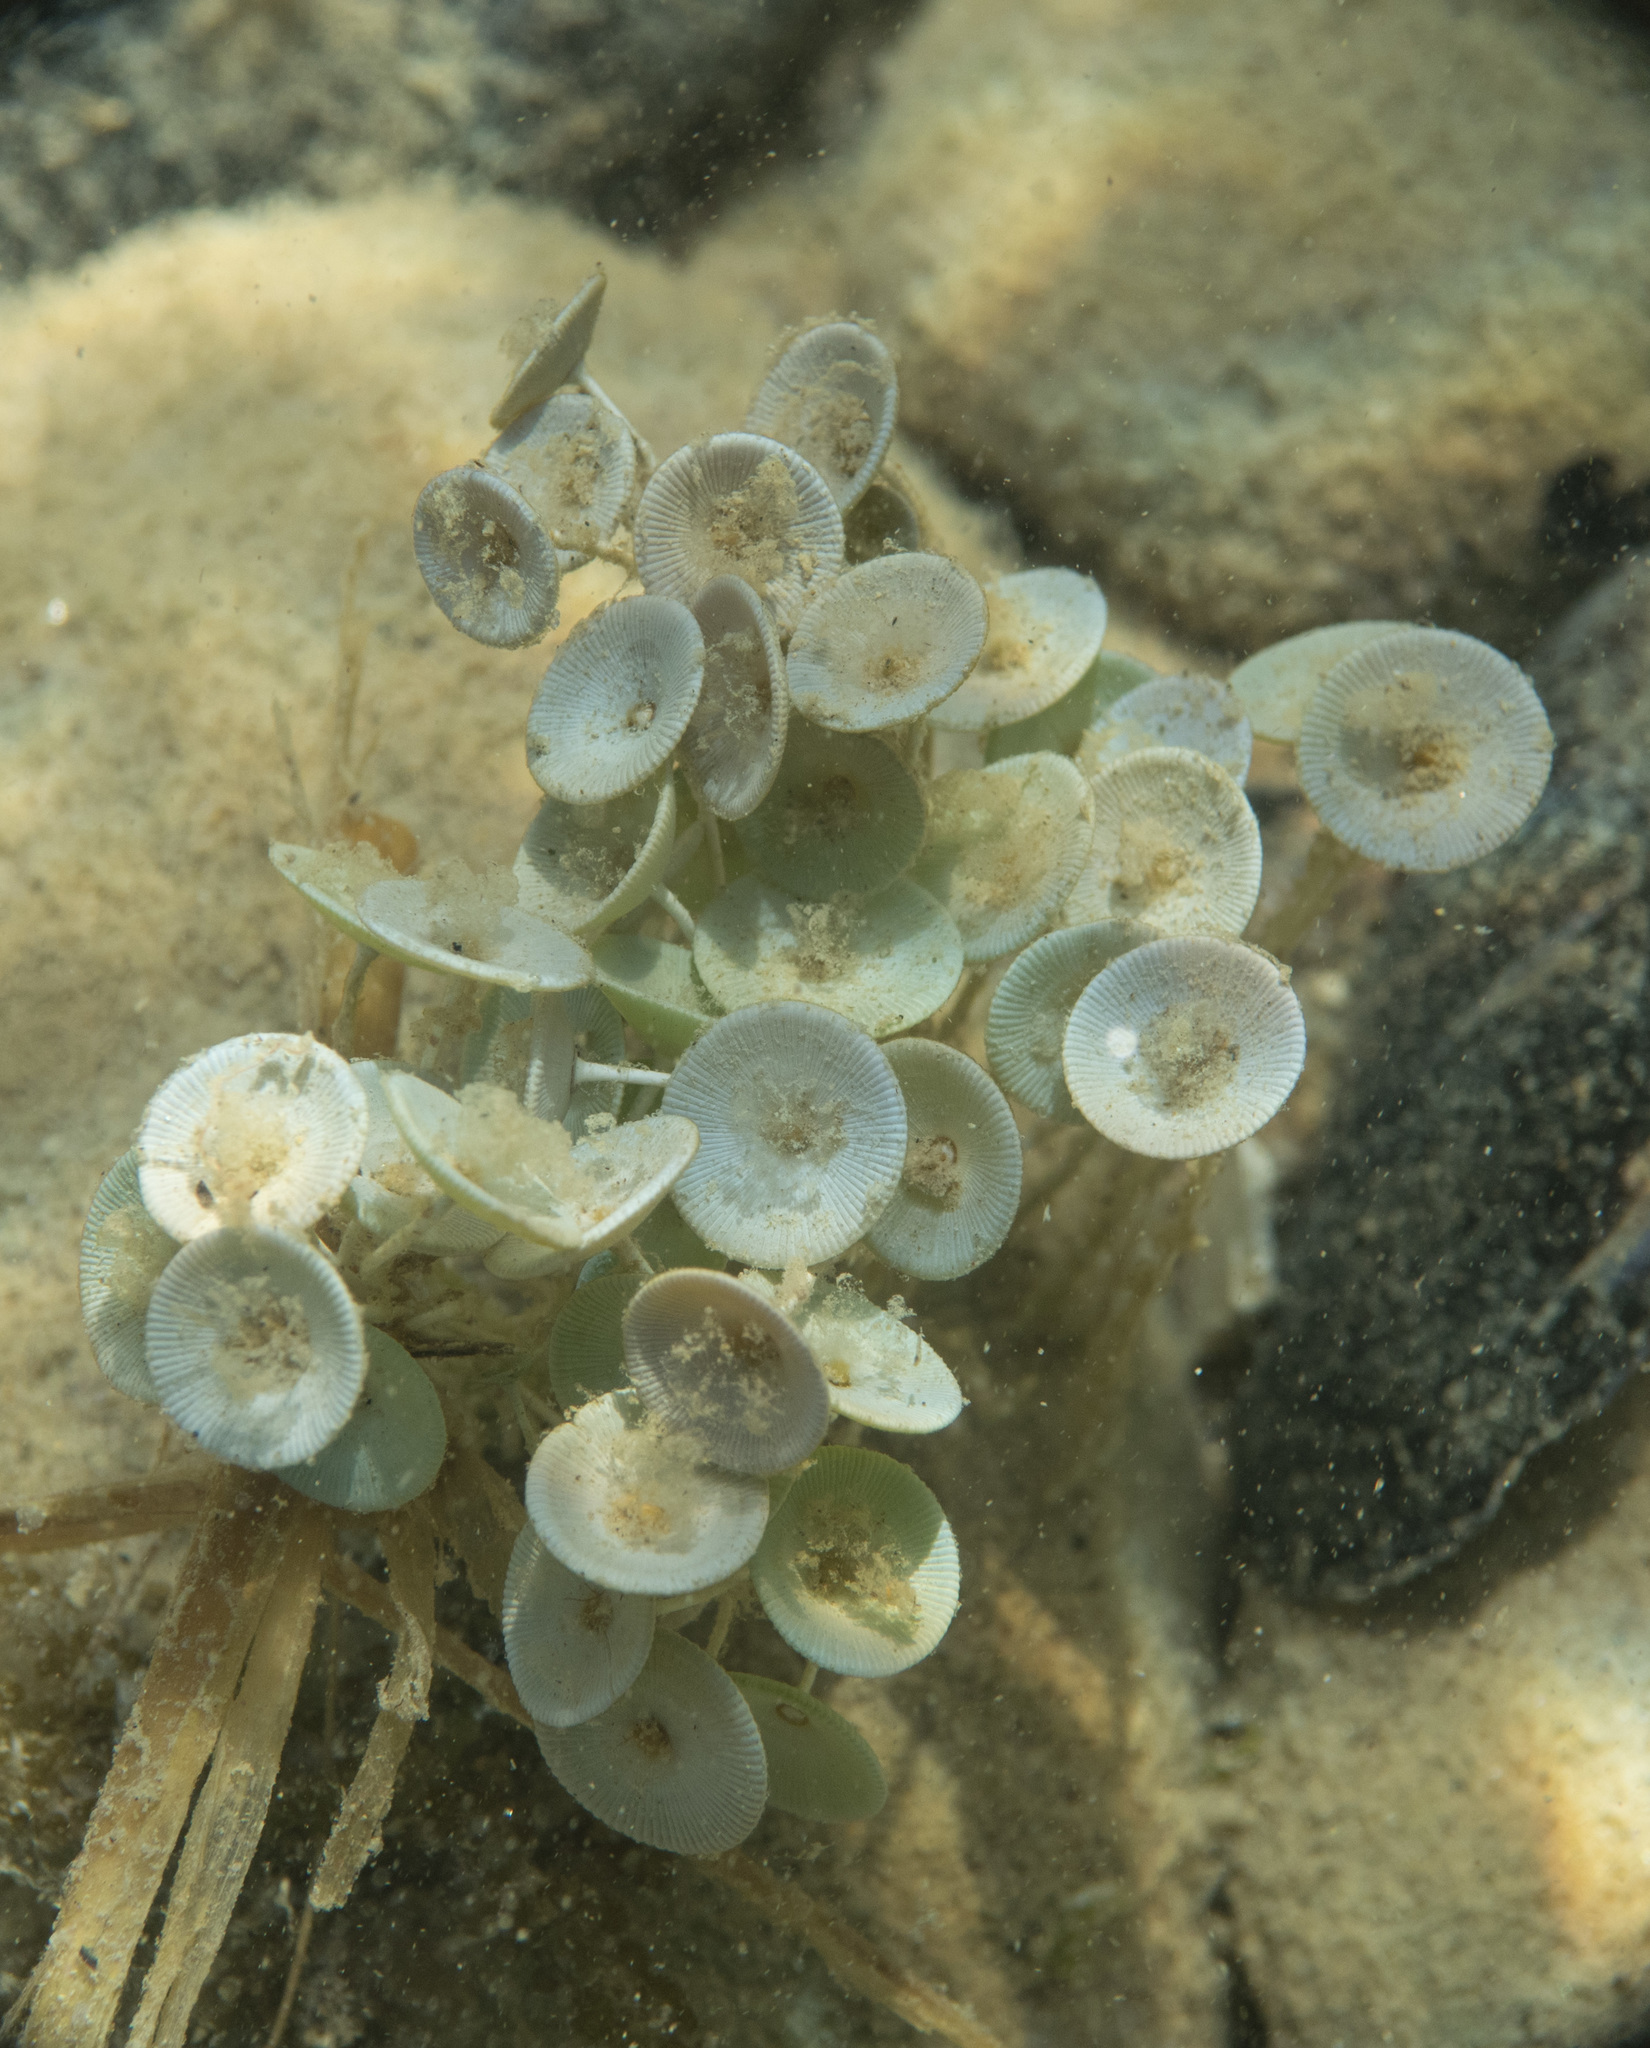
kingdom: Plantae
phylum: Chlorophyta
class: Ulvophyceae
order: Dasycladales
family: Polyphysaceae
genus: Acetabularia
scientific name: Acetabularia acetabulum
